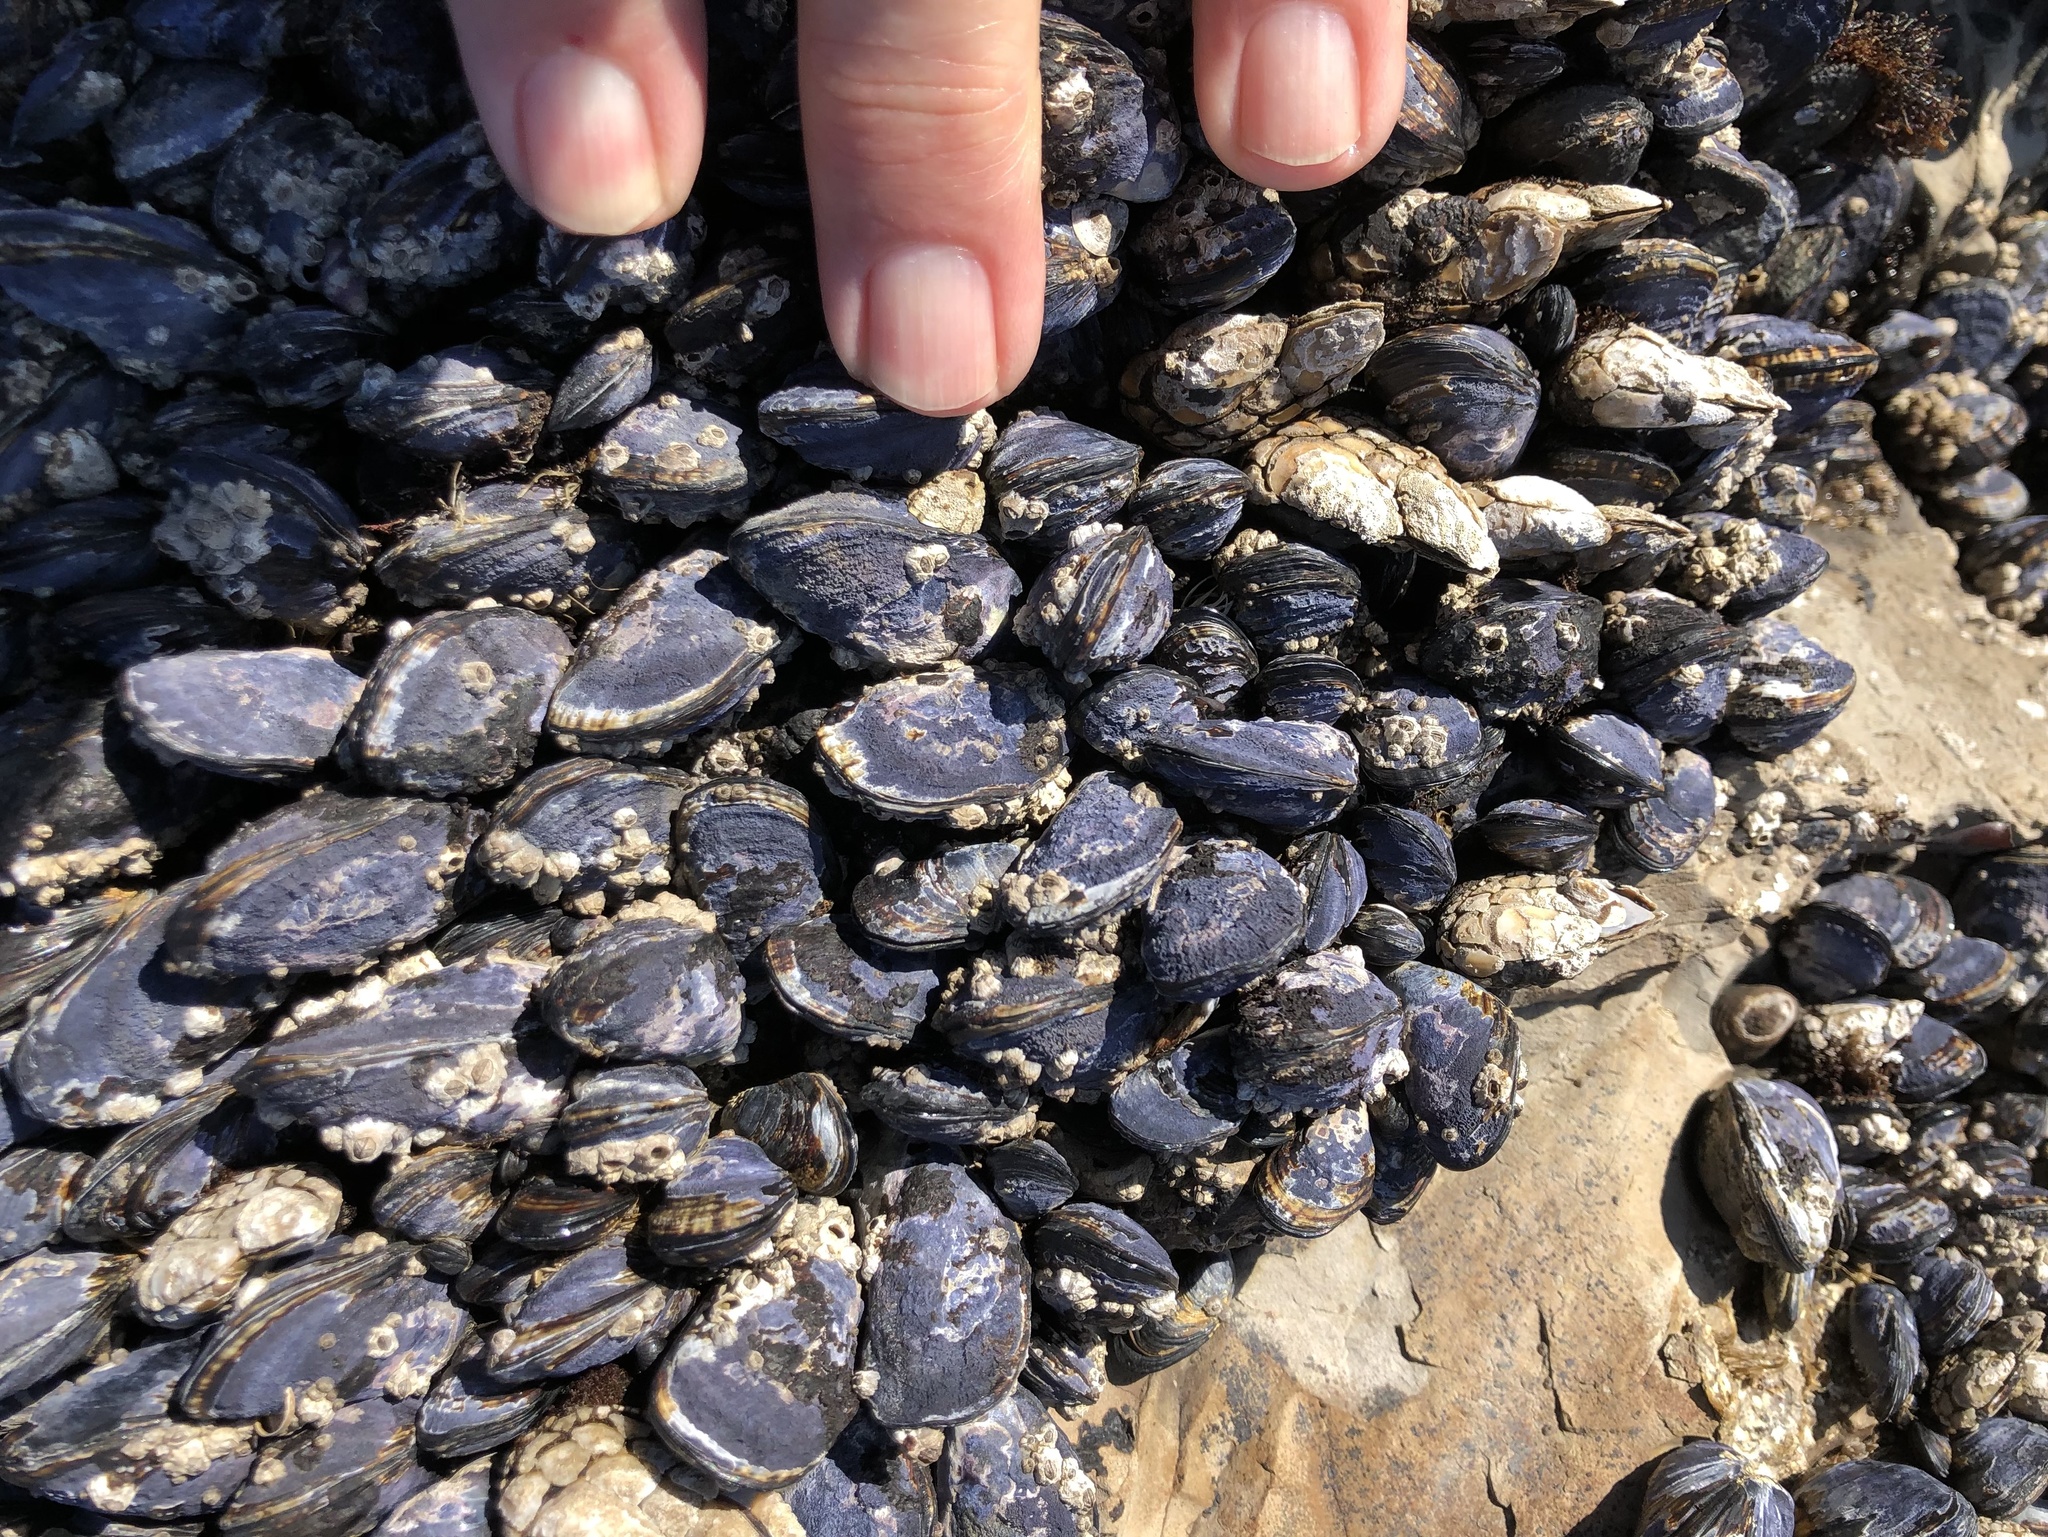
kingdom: Animalia
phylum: Mollusca
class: Bivalvia
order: Mytilida
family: Mytilidae
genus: Mytilus
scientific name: Mytilus californianus
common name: California mussel
